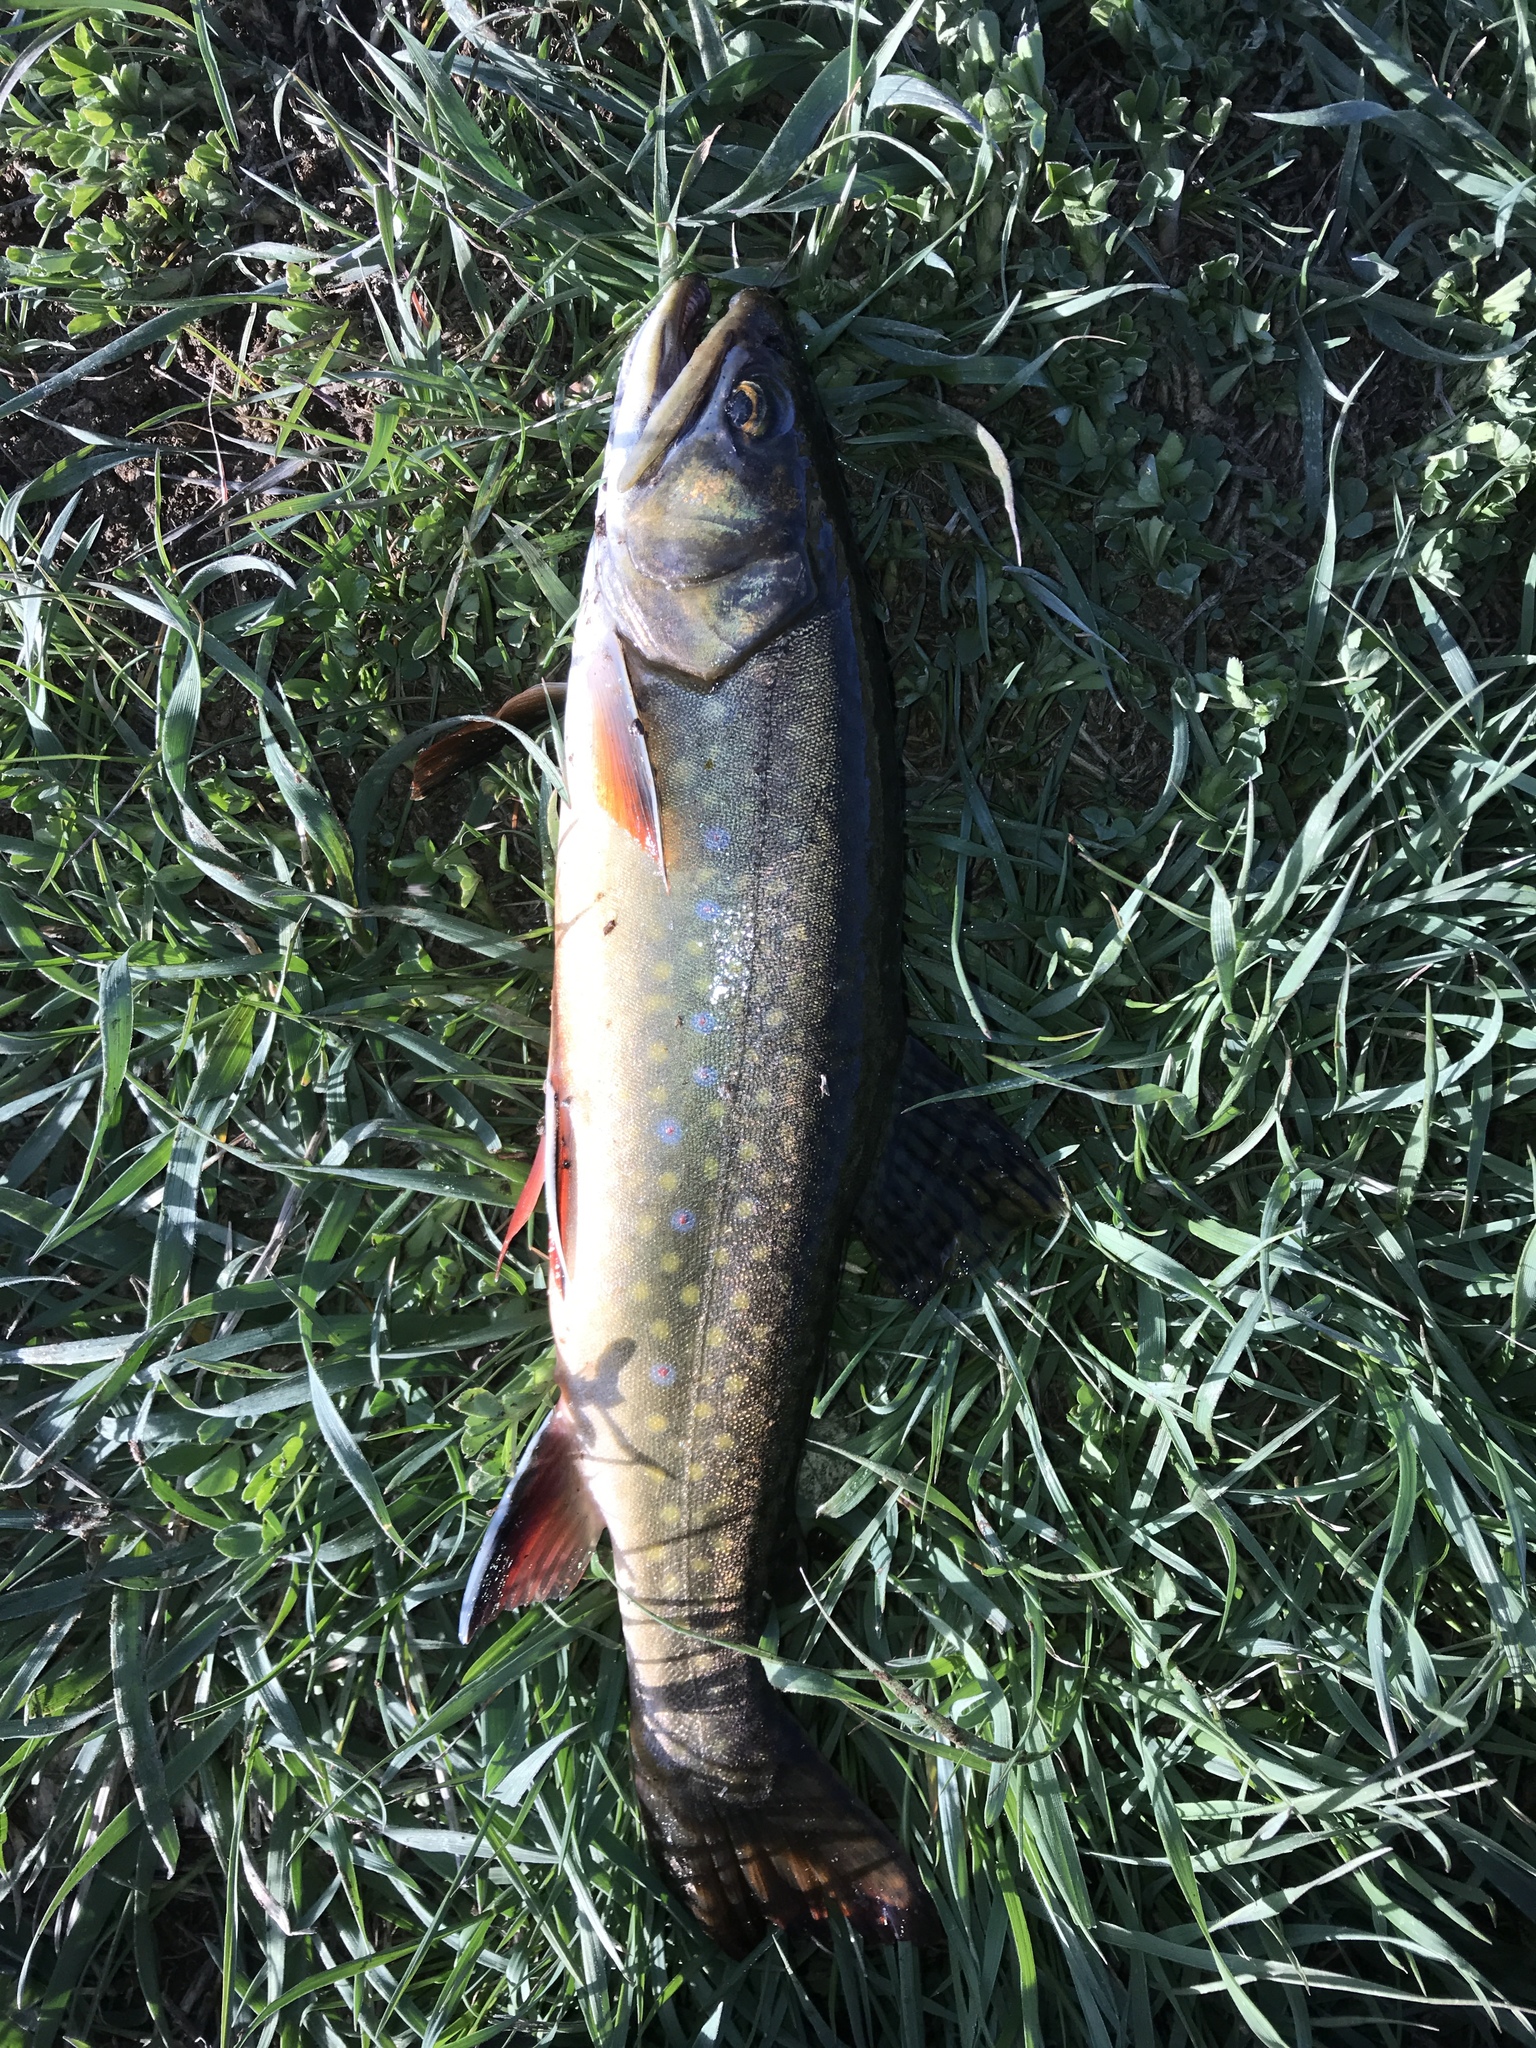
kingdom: Animalia
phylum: Chordata
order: Salmoniformes
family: Salmonidae
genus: Salvelinus
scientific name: Salvelinus fontinalis
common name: Brook trout
